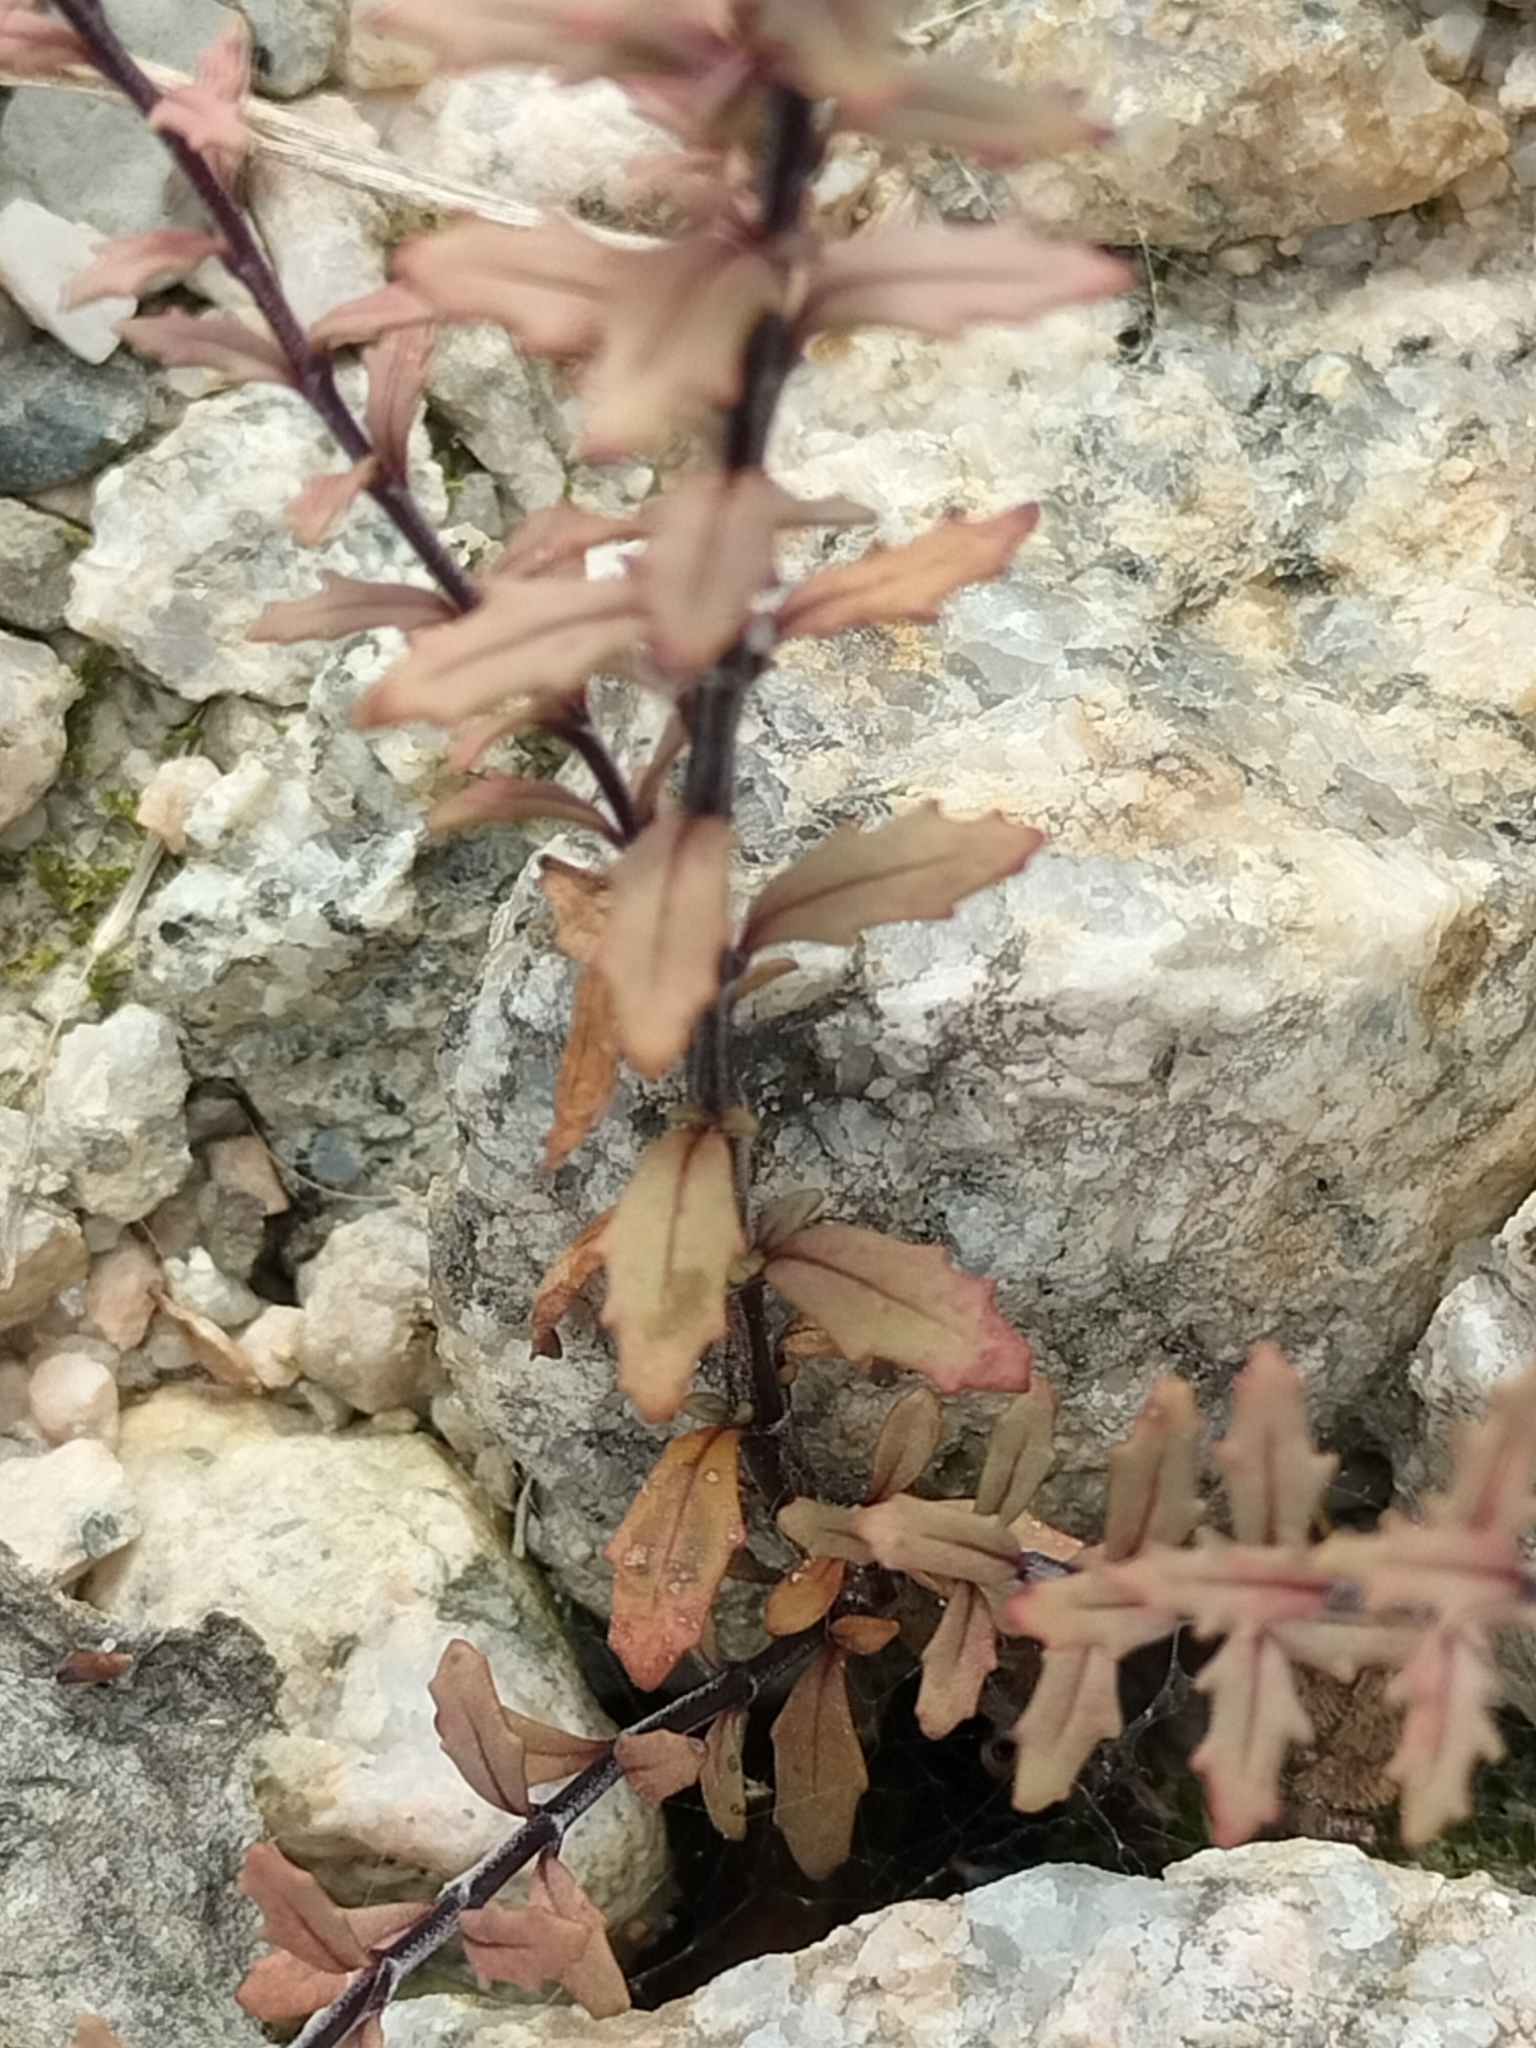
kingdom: Plantae
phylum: Tracheophyta
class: Magnoliopsida
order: Myrtales
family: Onagraceae
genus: Epilobium
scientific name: Epilobium melanocaulon
